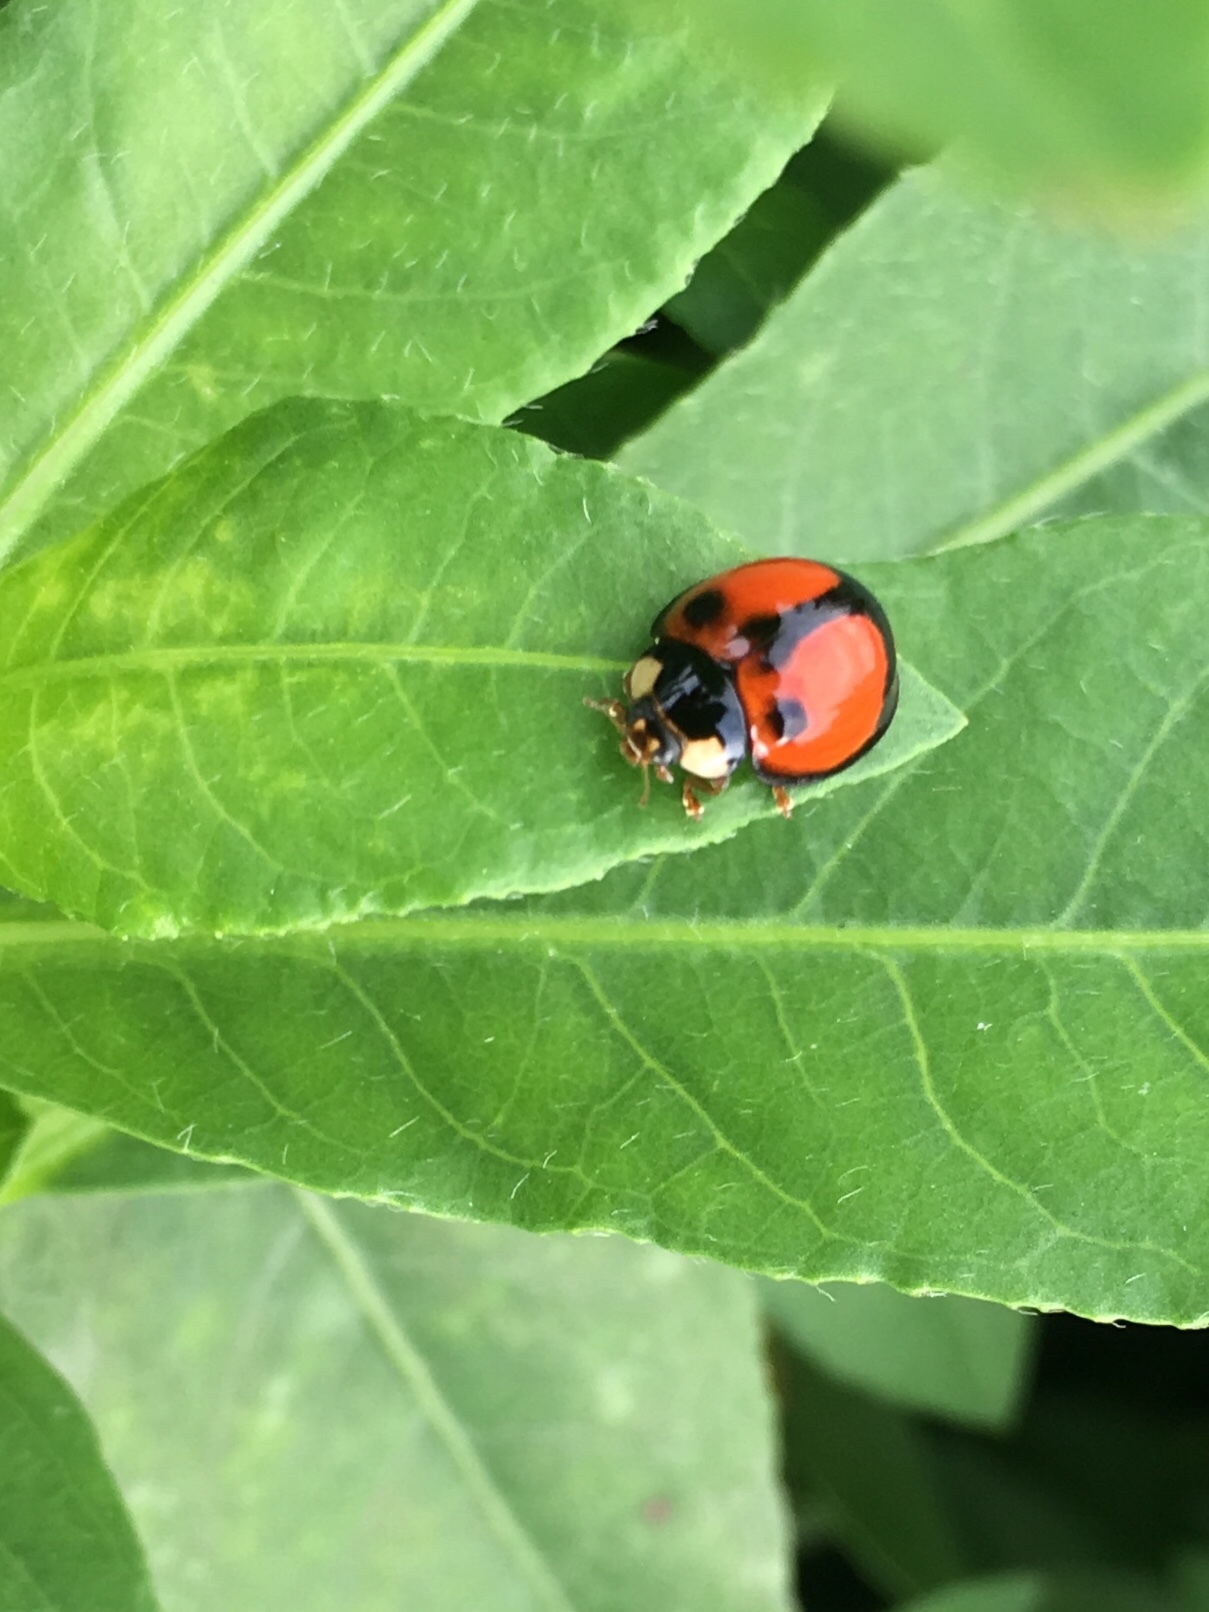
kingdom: Animalia
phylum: Arthropoda
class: Insecta
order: Coleoptera
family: Coccinellidae
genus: Coelophora
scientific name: Coelophora biplagiata
